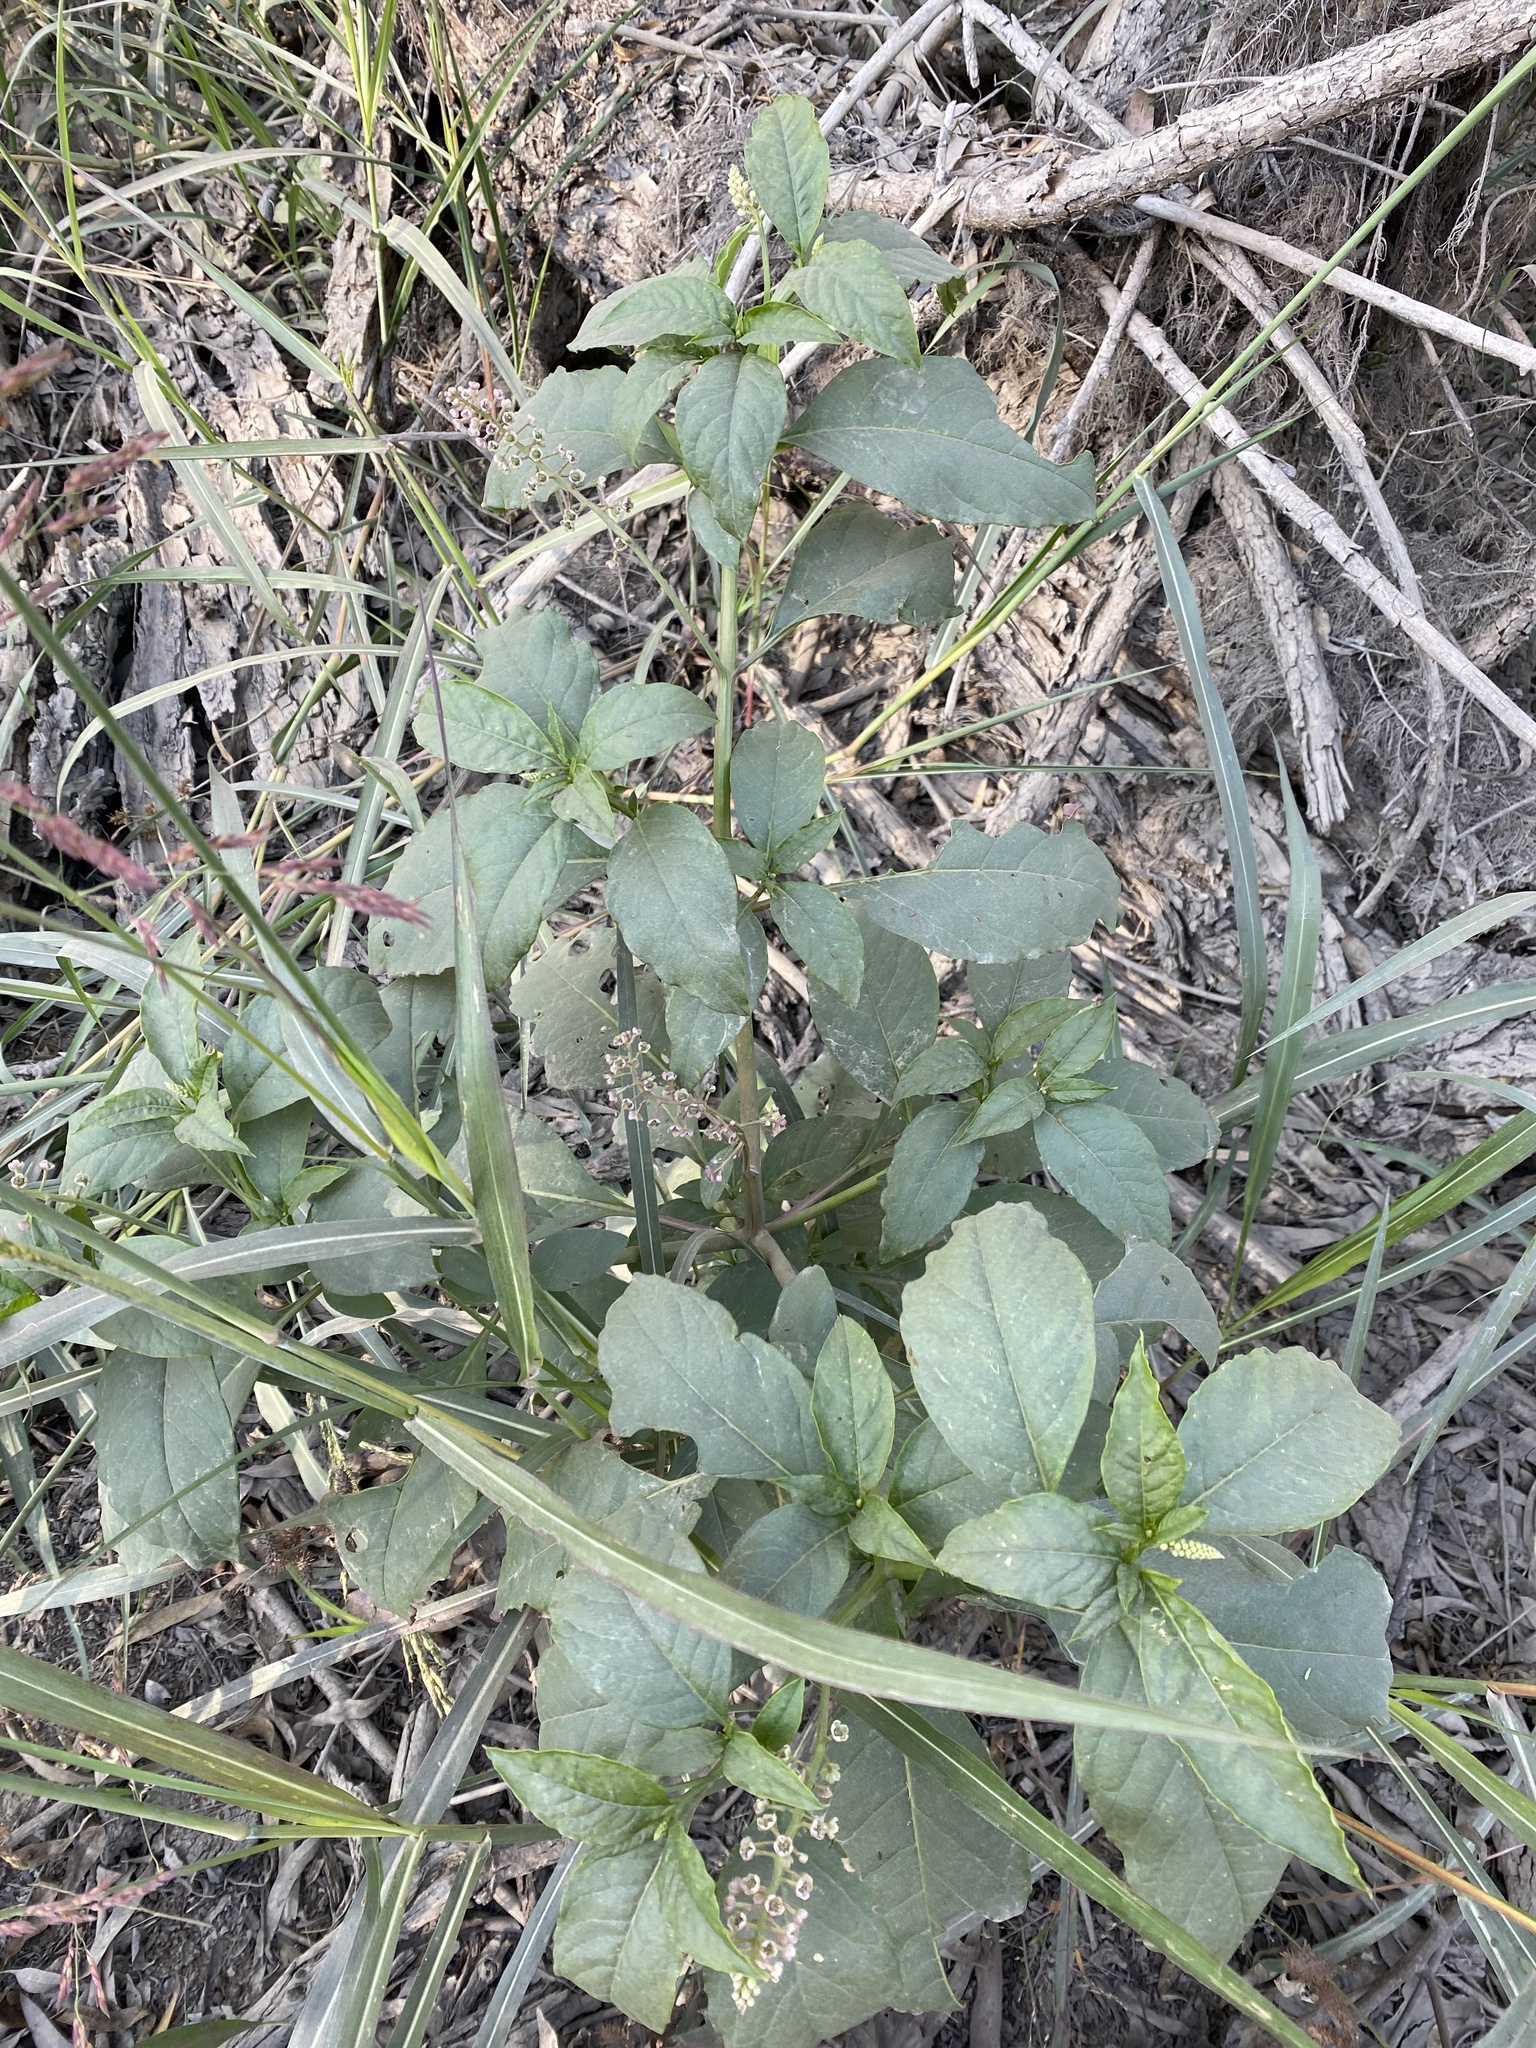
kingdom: Plantae
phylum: Tracheophyta
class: Magnoliopsida
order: Caryophyllales
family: Phytolaccaceae
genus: Phytolacca
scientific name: Phytolacca americana
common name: American pokeweed
